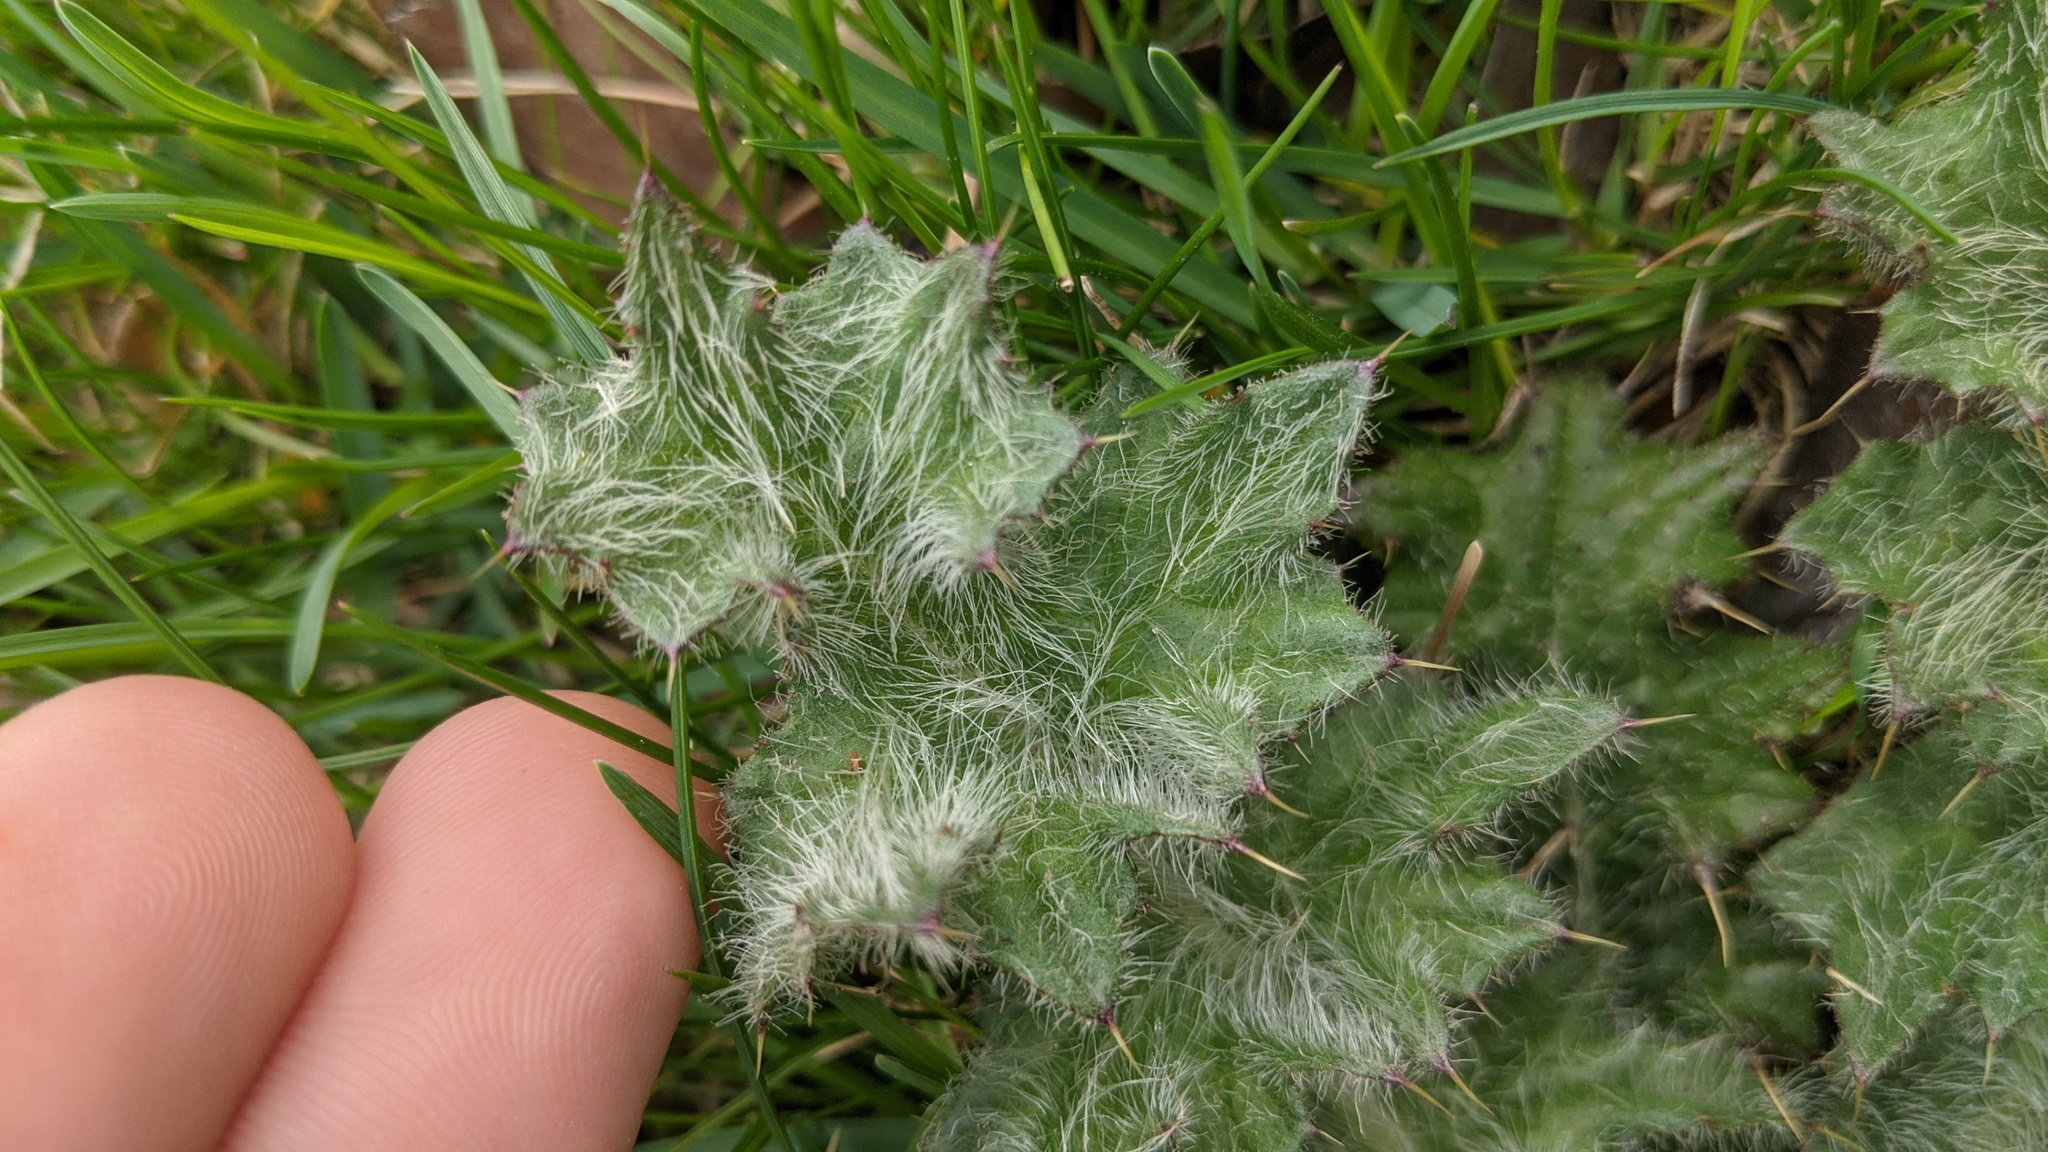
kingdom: Plantae
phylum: Tracheophyta
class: Magnoliopsida
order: Asterales
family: Asteraceae
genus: Cirsium
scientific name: Cirsium vulgare
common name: Bull thistle
